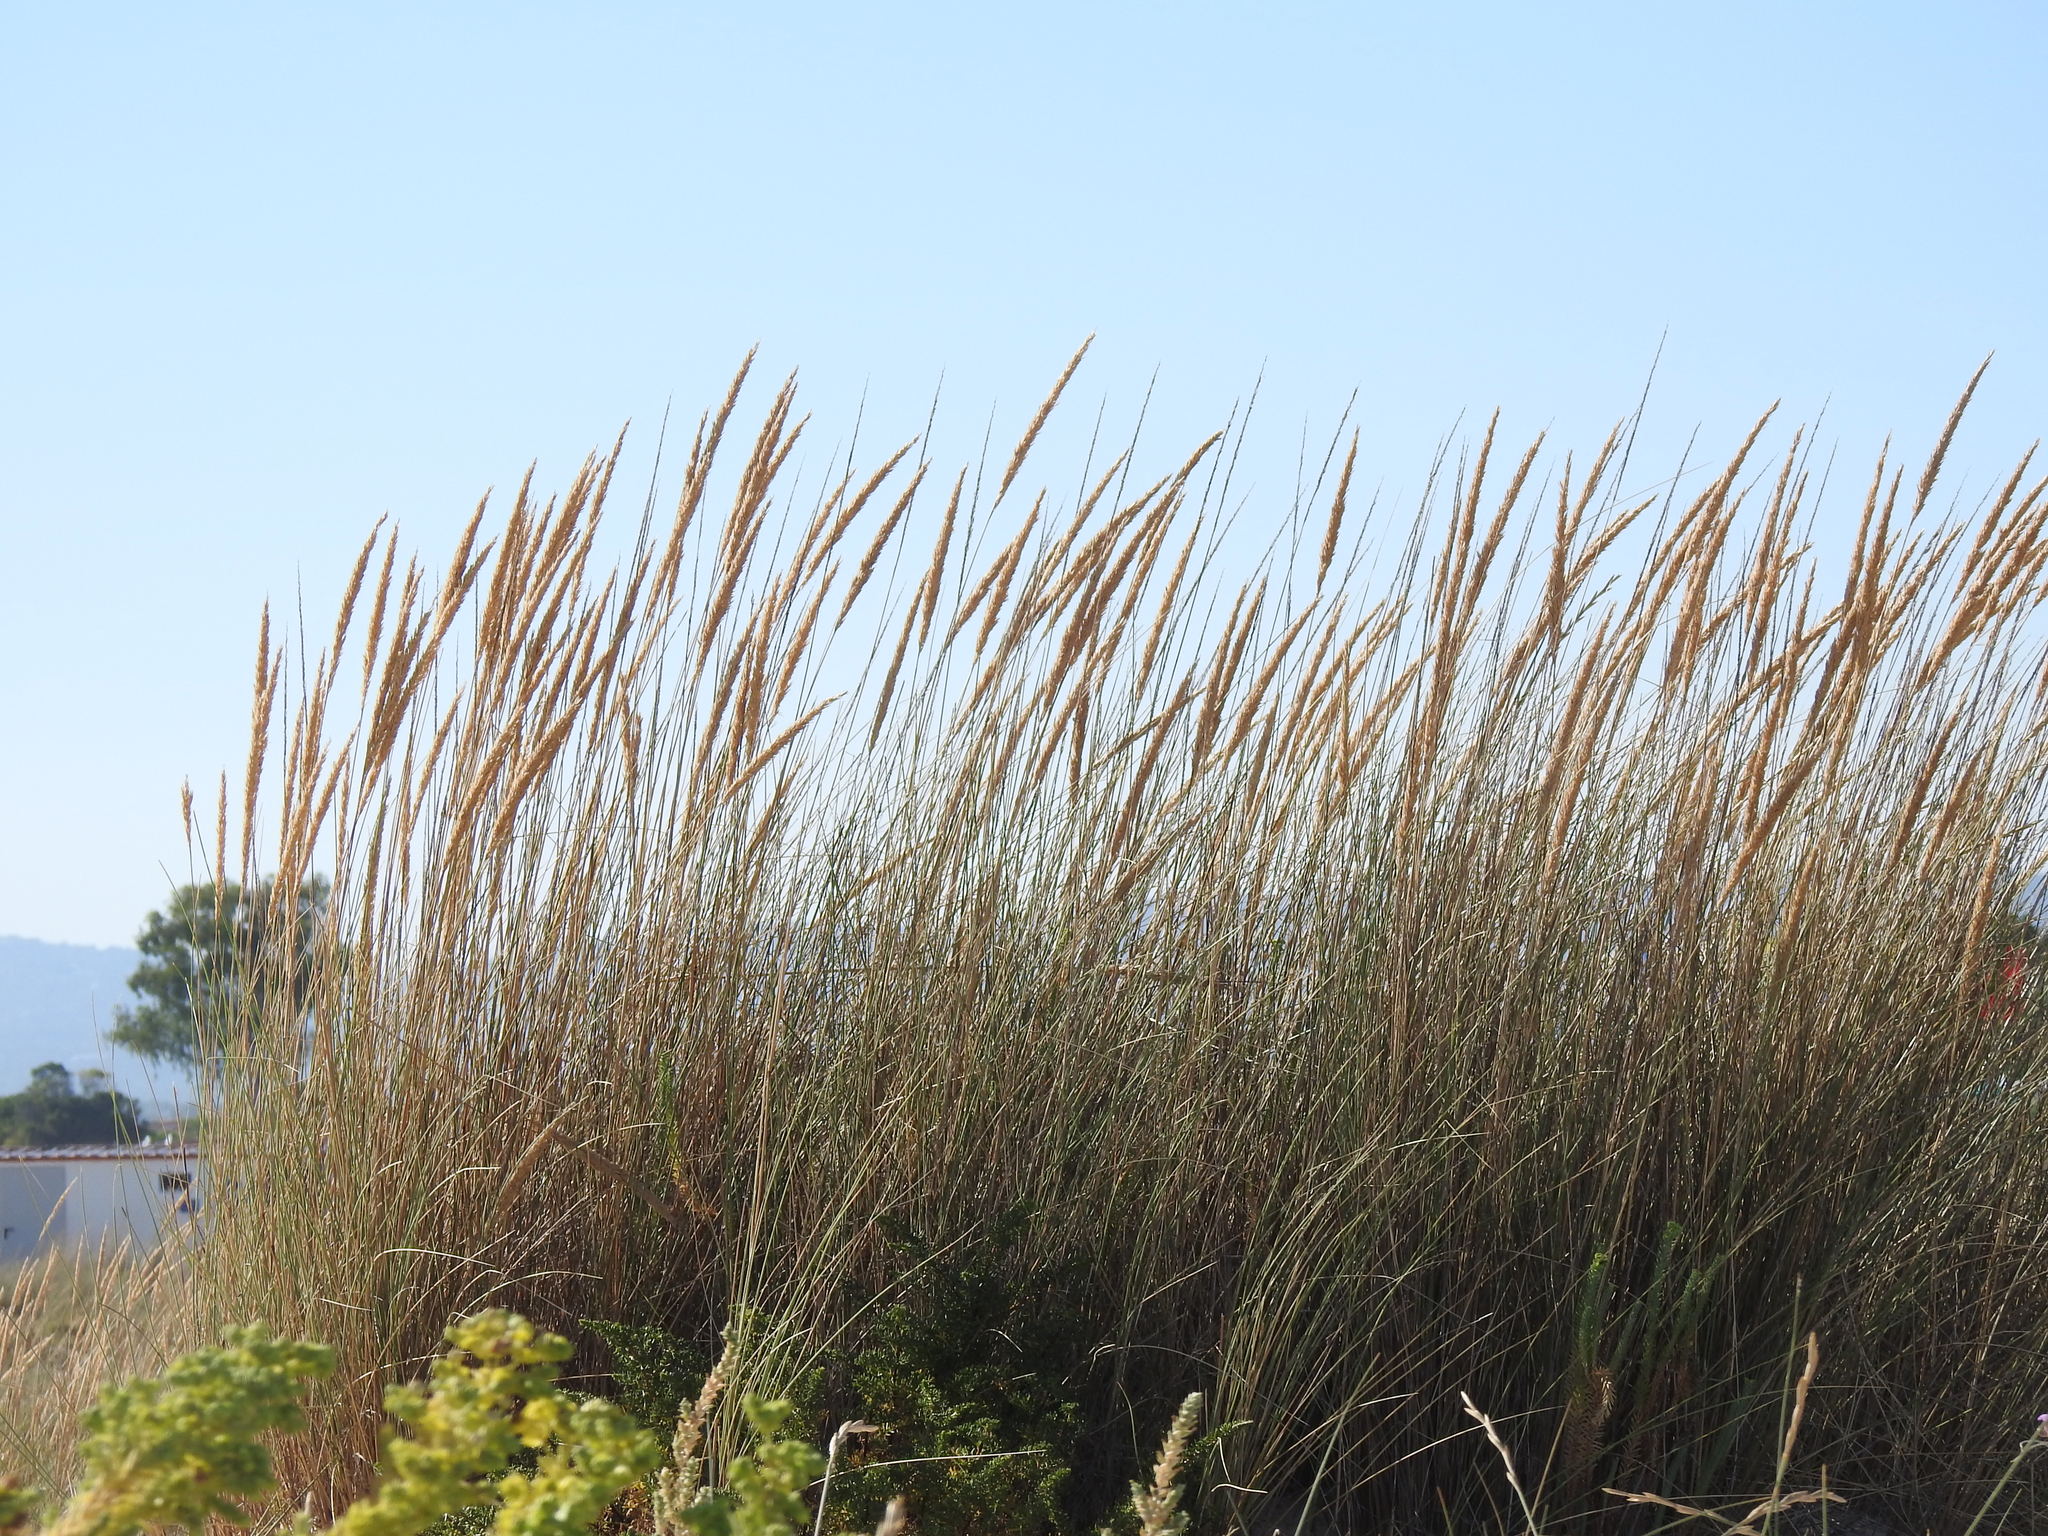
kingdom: Plantae
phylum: Tracheophyta
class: Liliopsida
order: Poales
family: Poaceae
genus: Calamagrostis
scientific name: Calamagrostis arenaria
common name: European beachgrass
